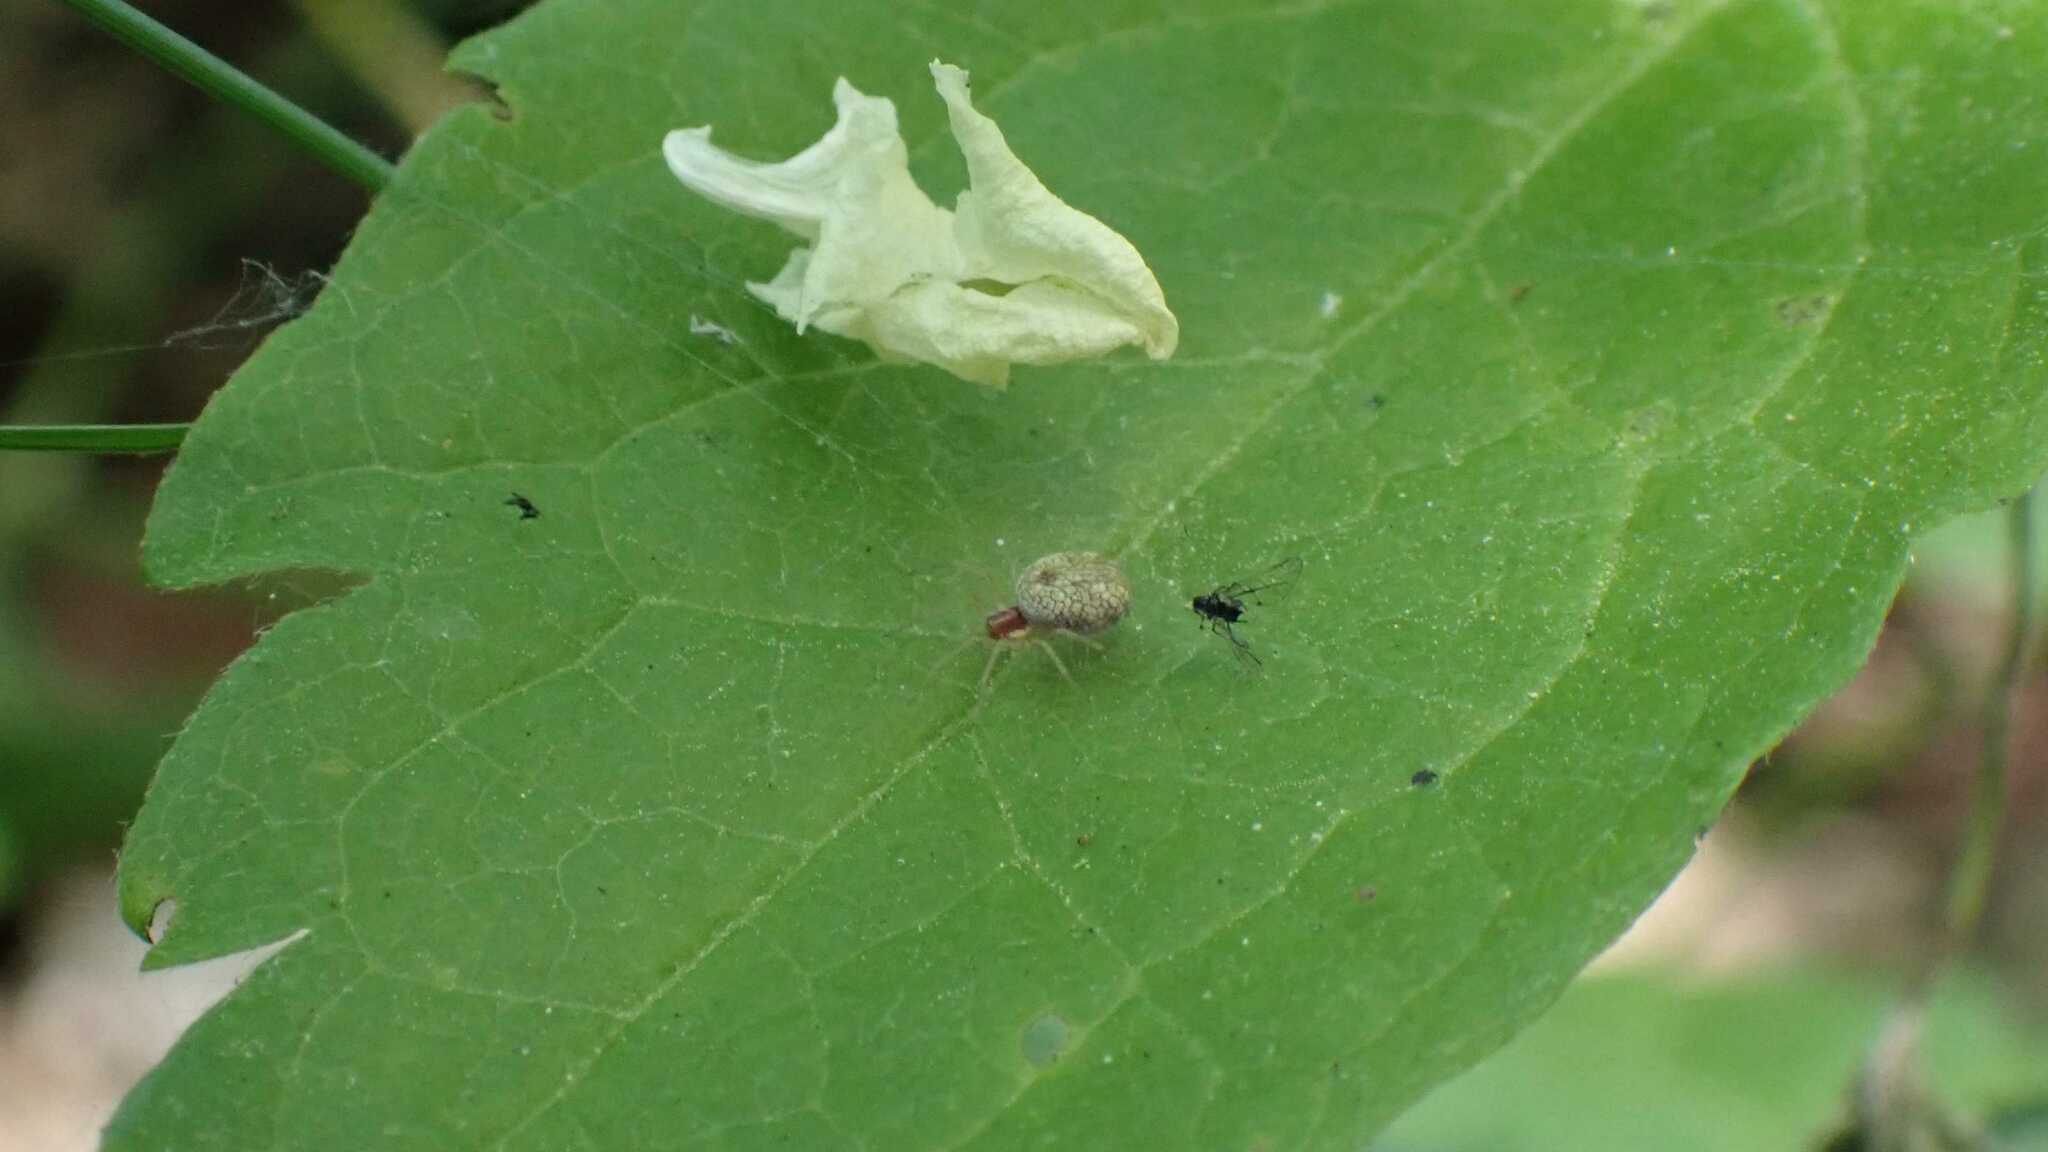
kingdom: Animalia
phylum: Arthropoda
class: Arachnida
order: Araneae
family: Dictynidae
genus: Nigma
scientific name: Nigma flavescens
